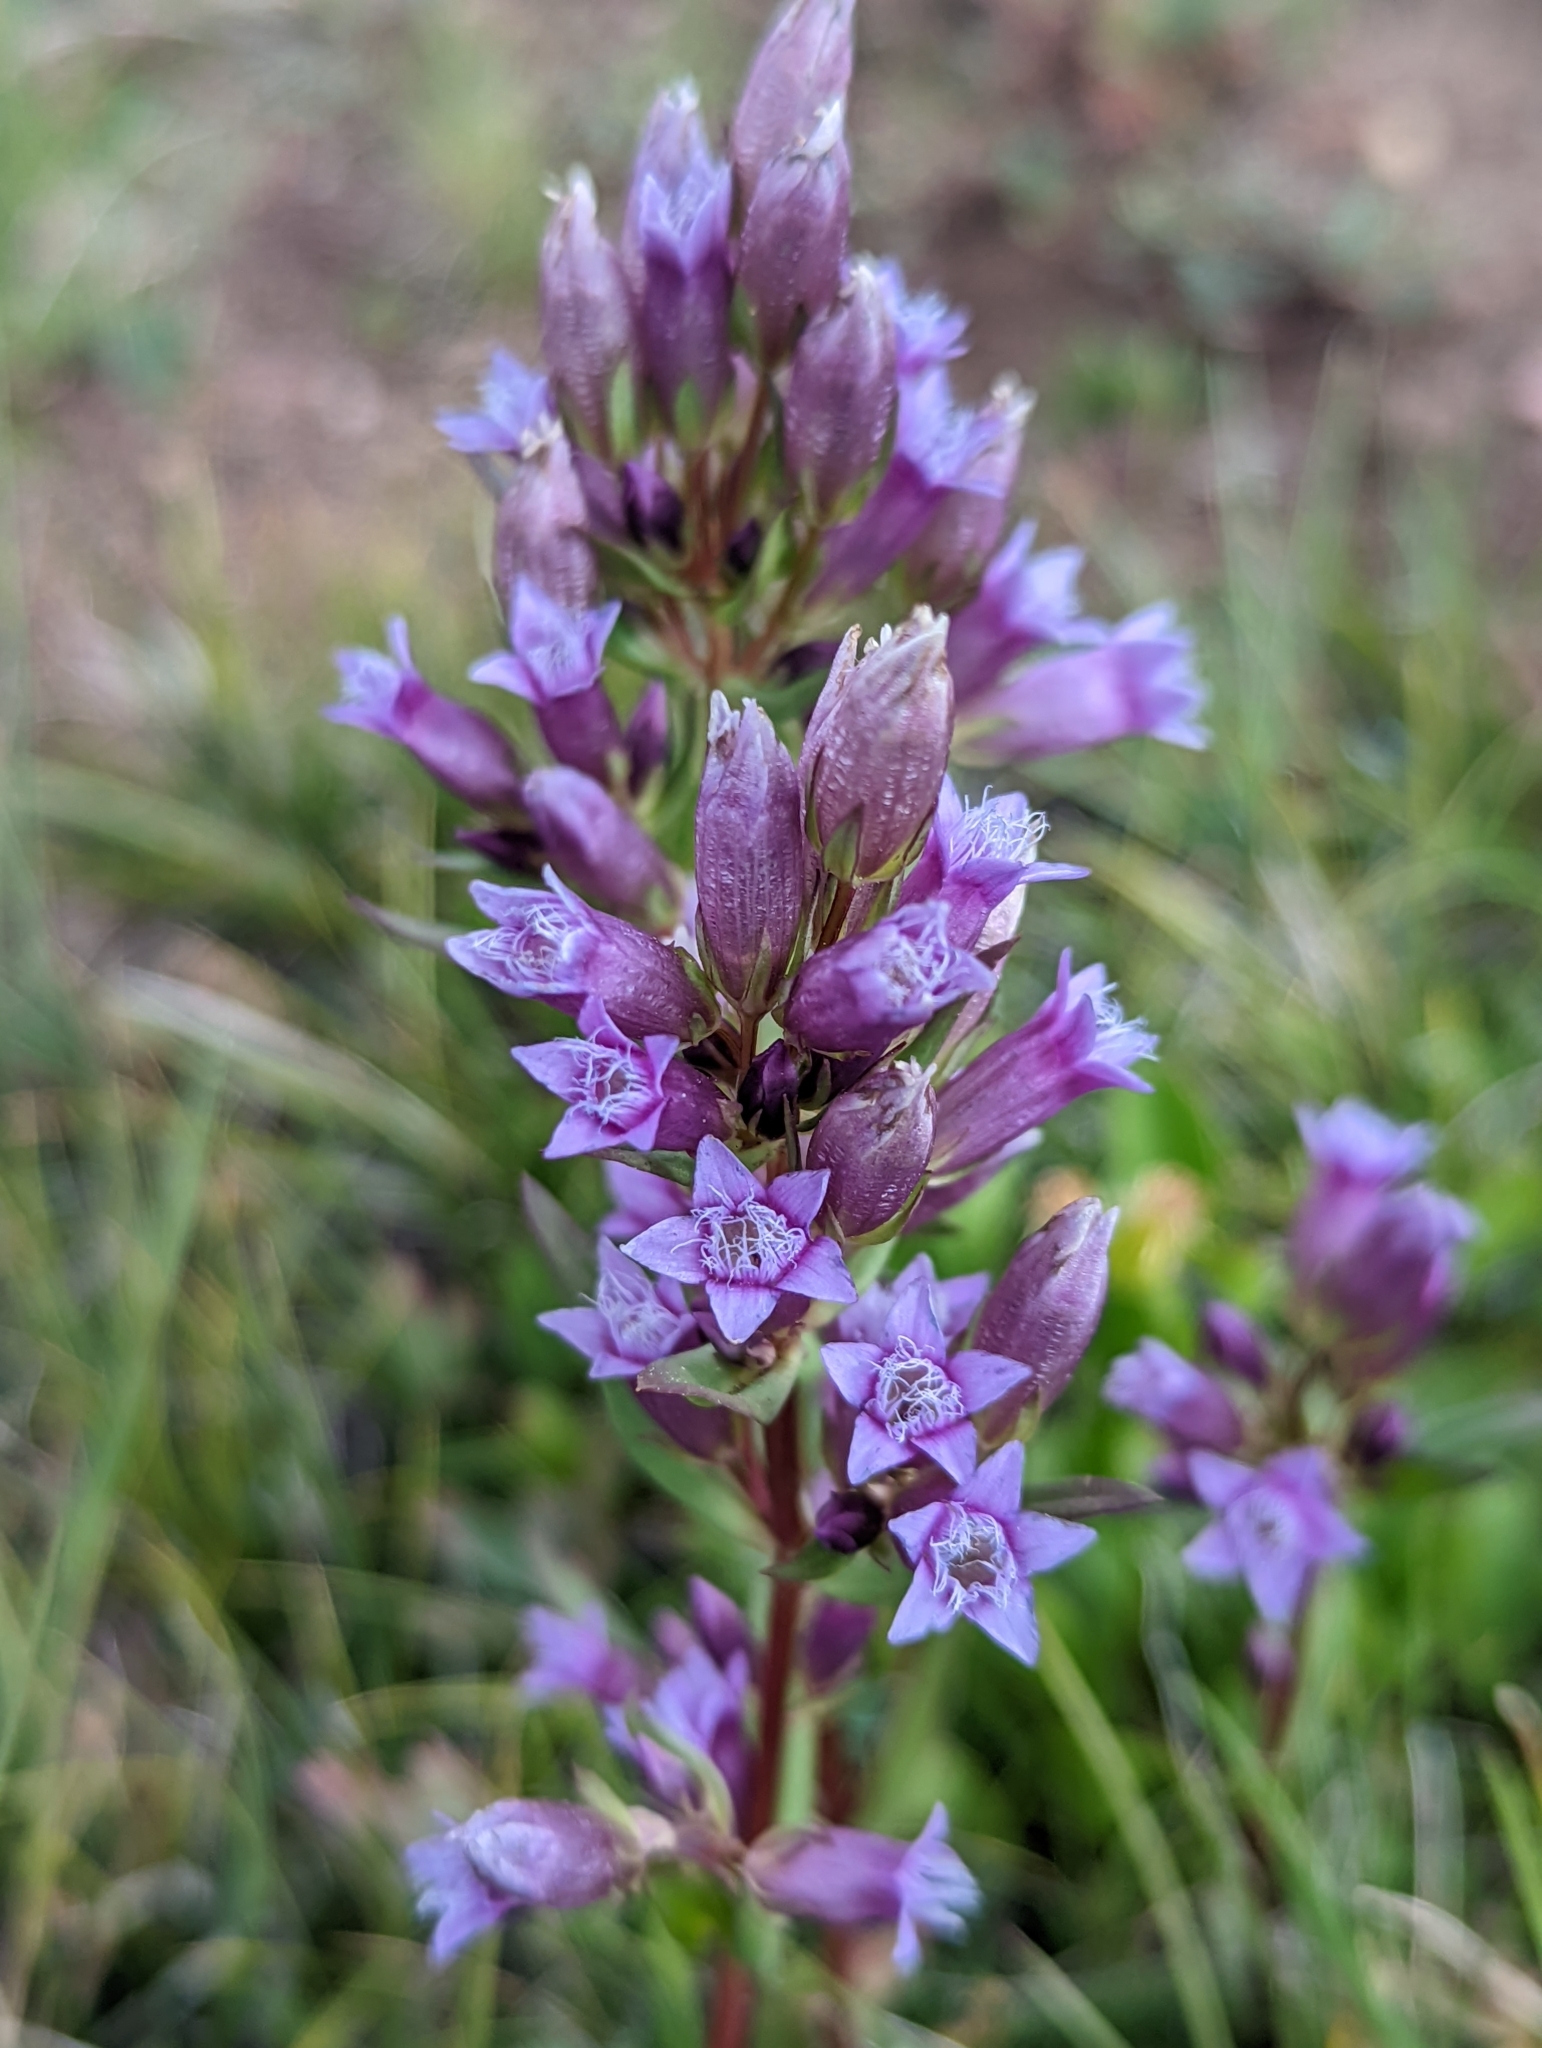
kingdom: Plantae
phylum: Tracheophyta
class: Magnoliopsida
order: Gentianales
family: Gentianaceae
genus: Gentianella
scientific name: Gentianella amarella
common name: Autumn gentian
